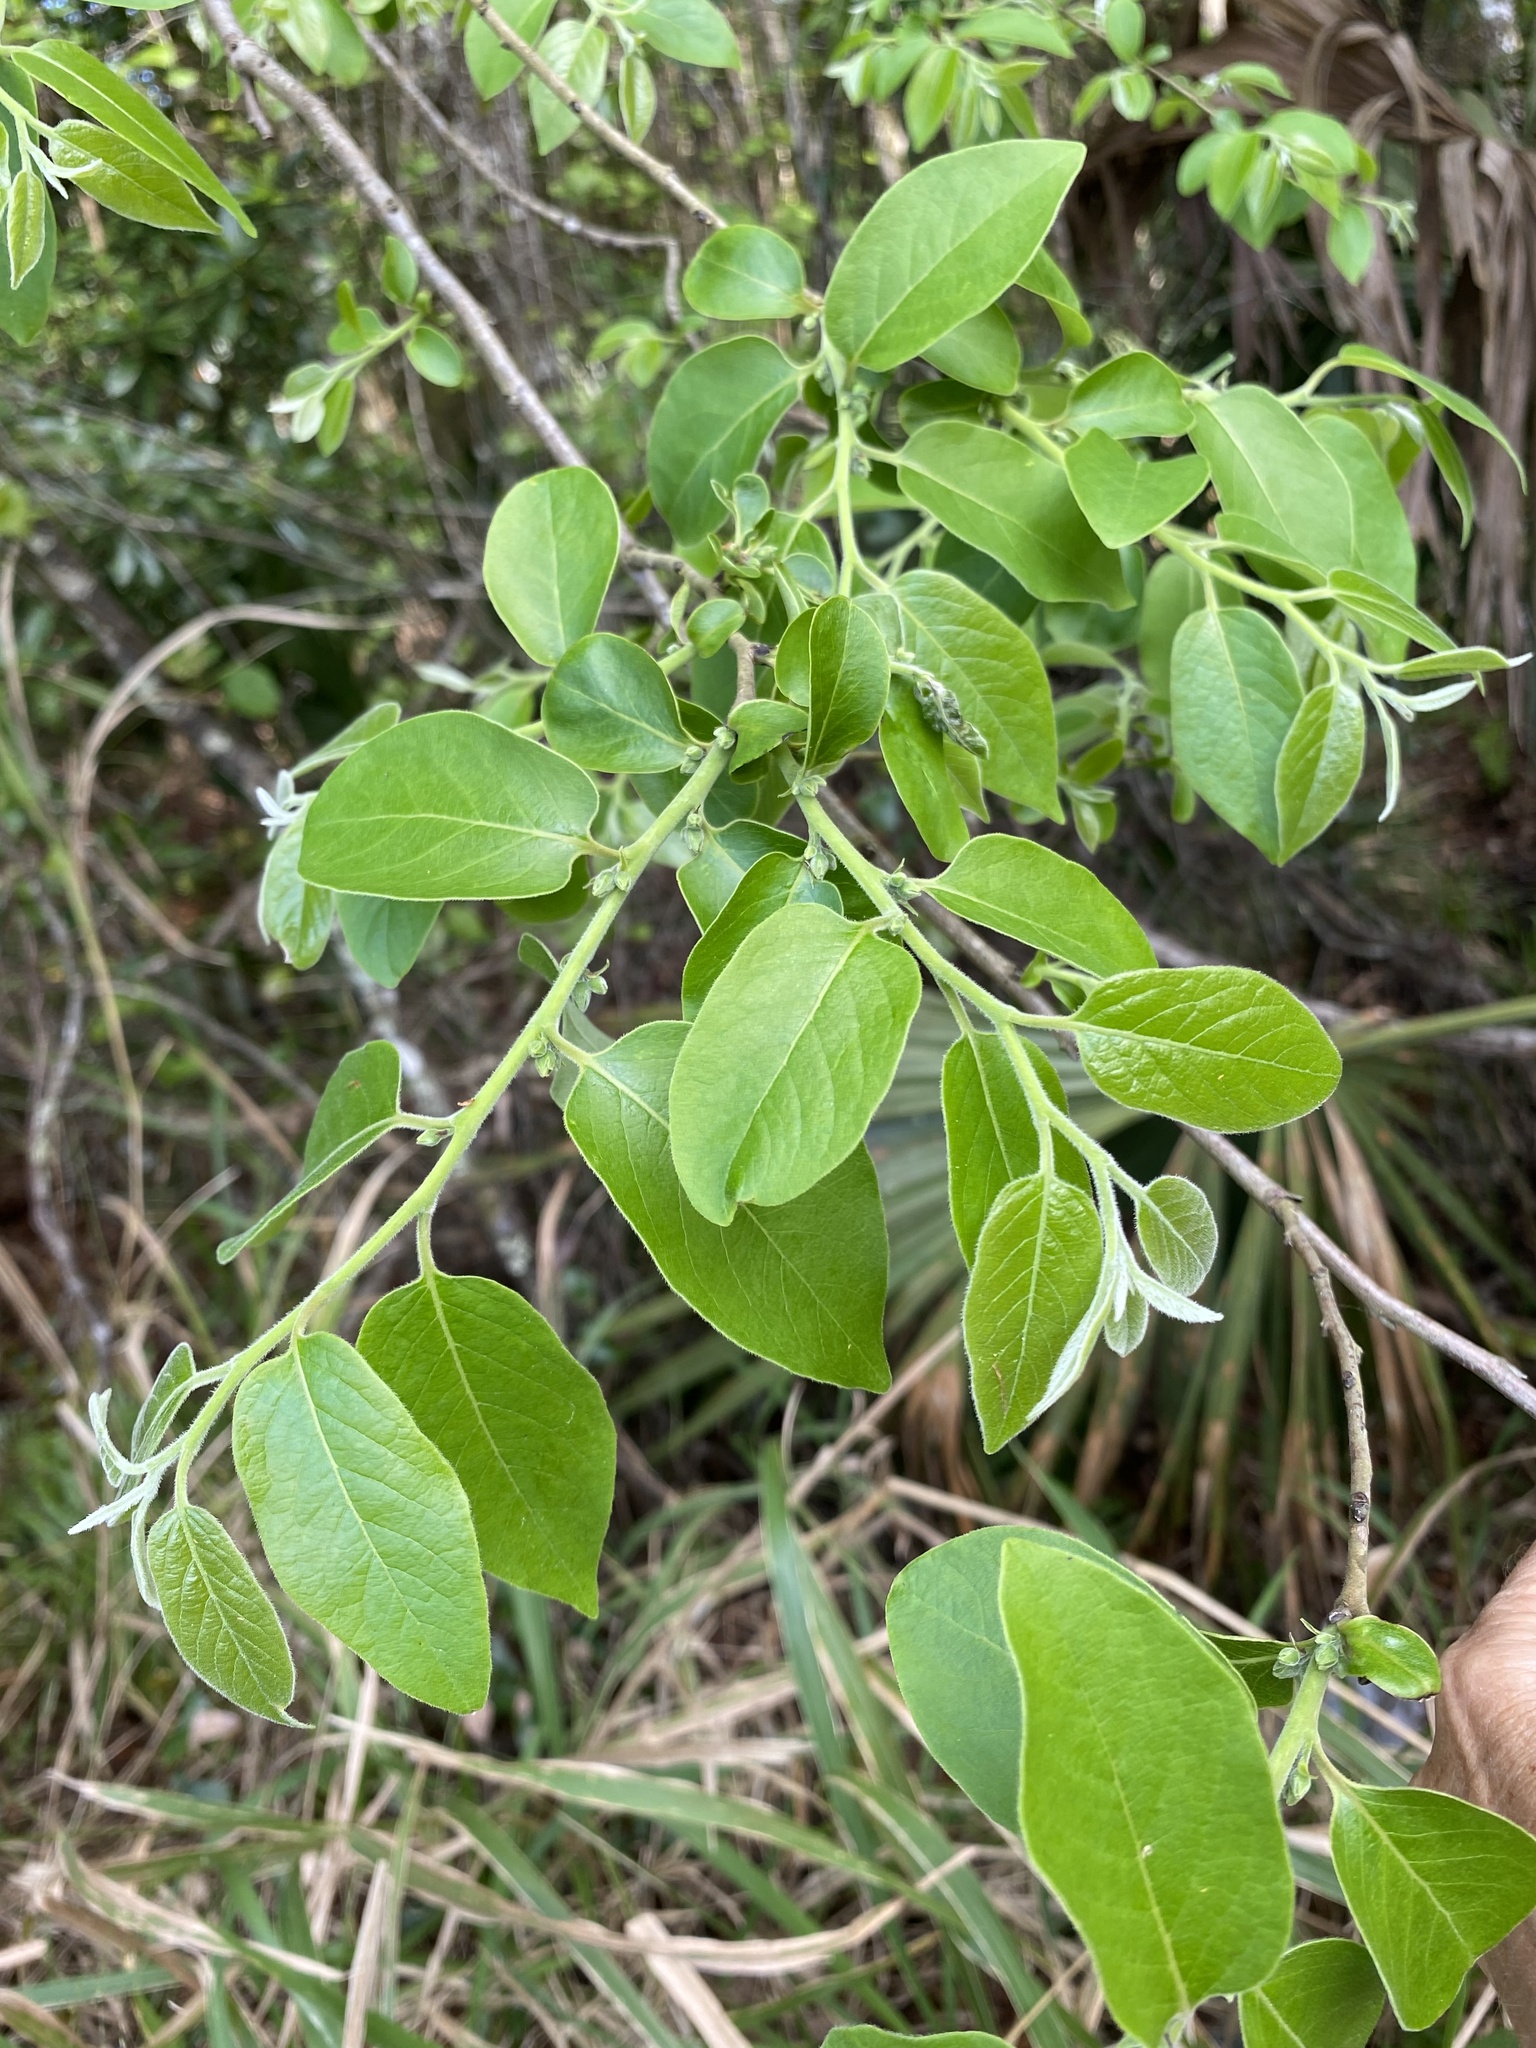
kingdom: Plantae
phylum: Tracheophyta
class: Magnoliopsida
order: Ericales
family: Ebenaceae
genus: Diospyros
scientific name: Diospyros virginiana
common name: Persimmon
